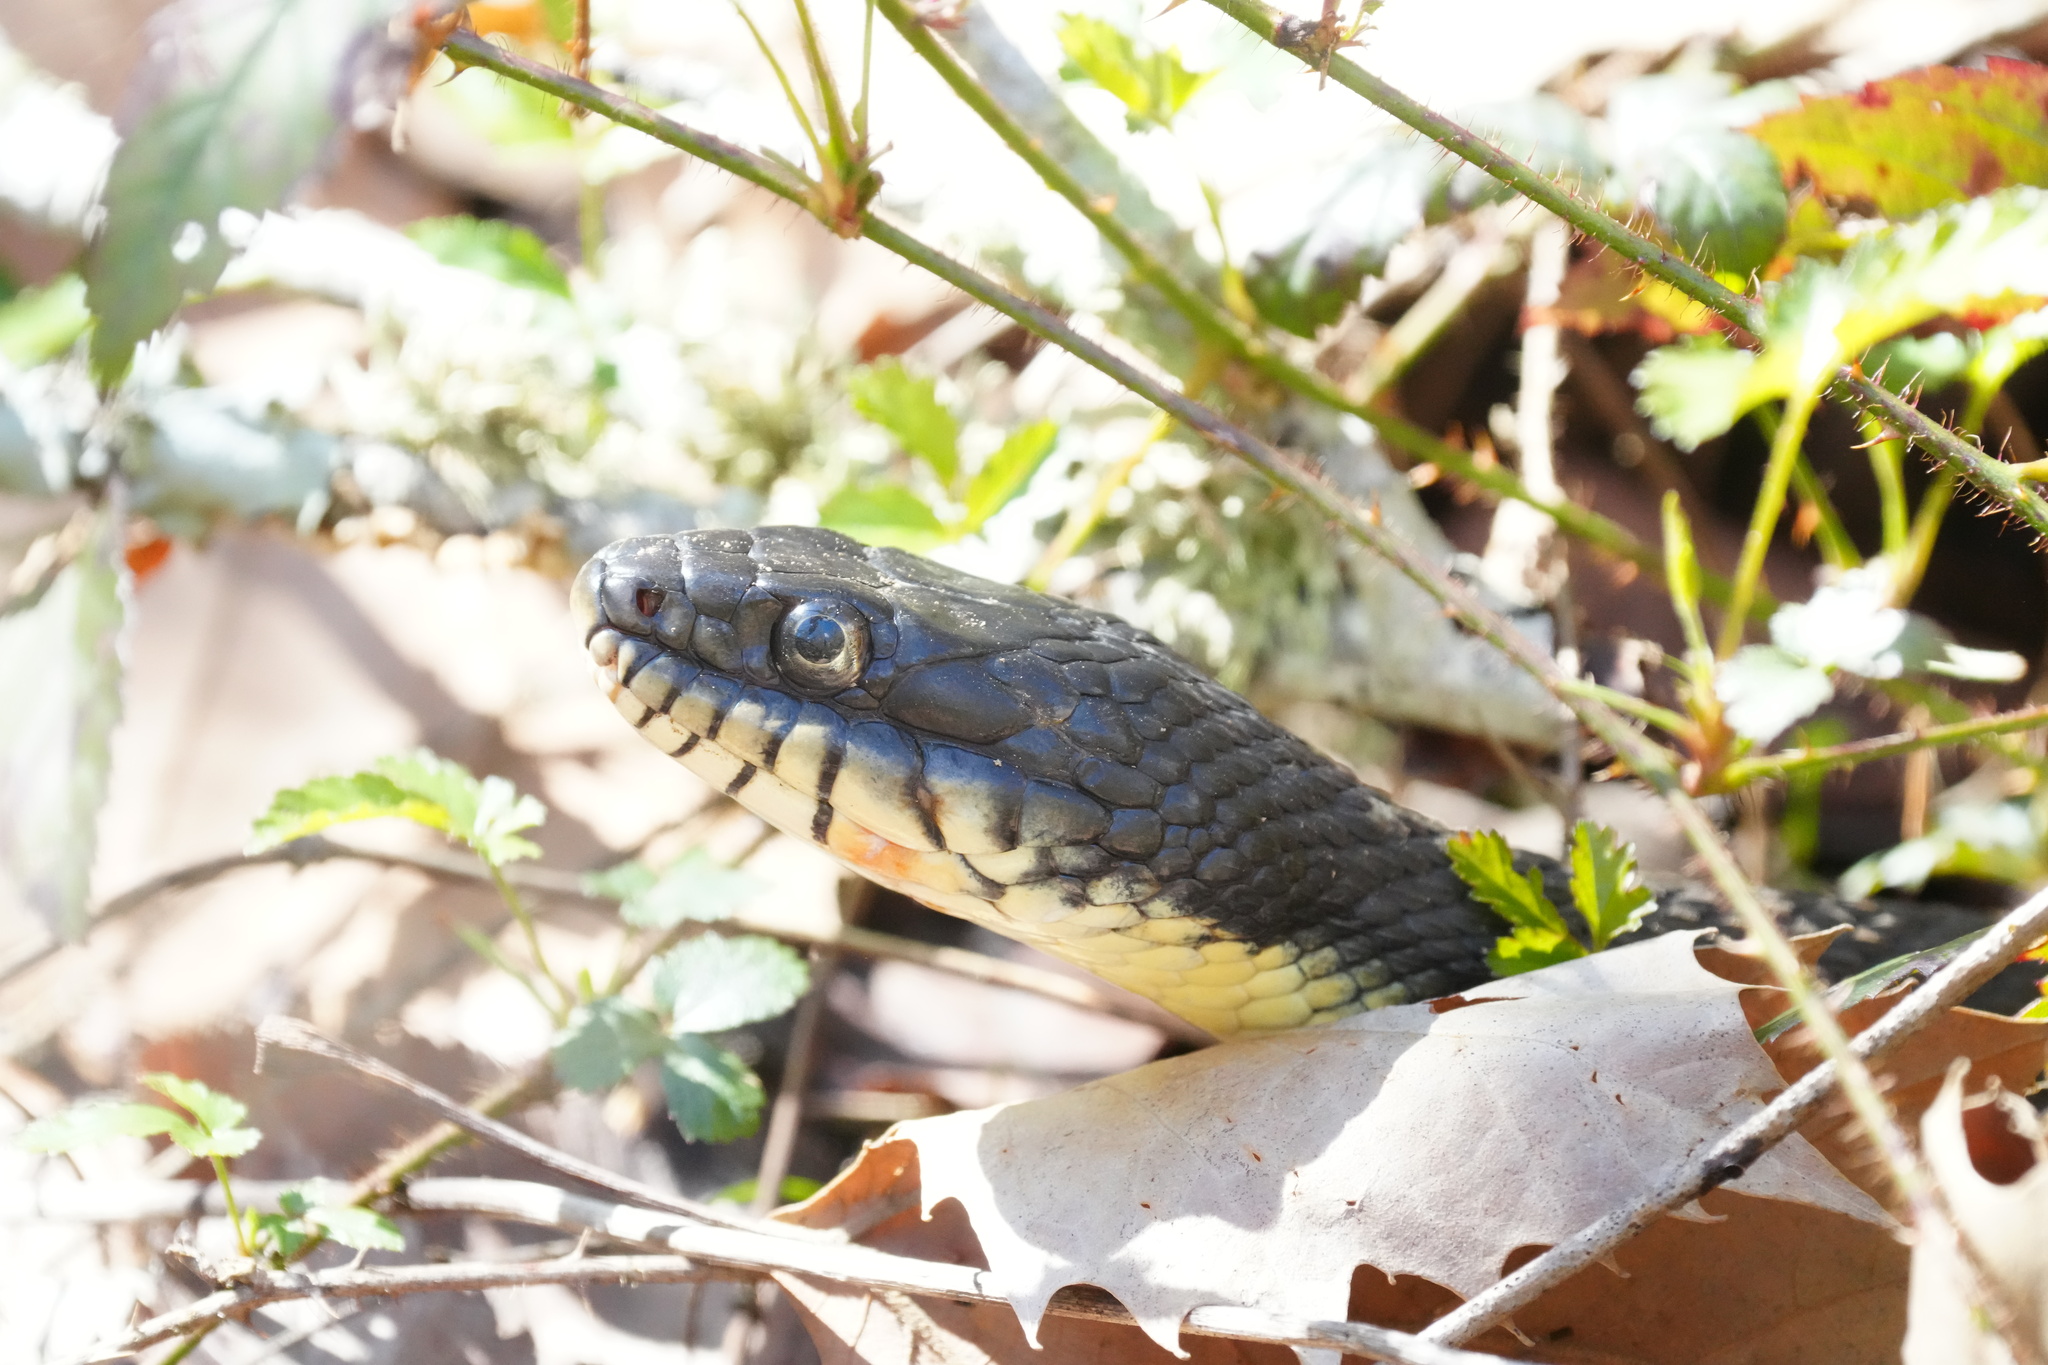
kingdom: Animalia
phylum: Chordata
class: Squamata
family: Colubridae
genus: Nerodia
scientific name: Nerodia erythrogaster
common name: Plainbelly water snake
